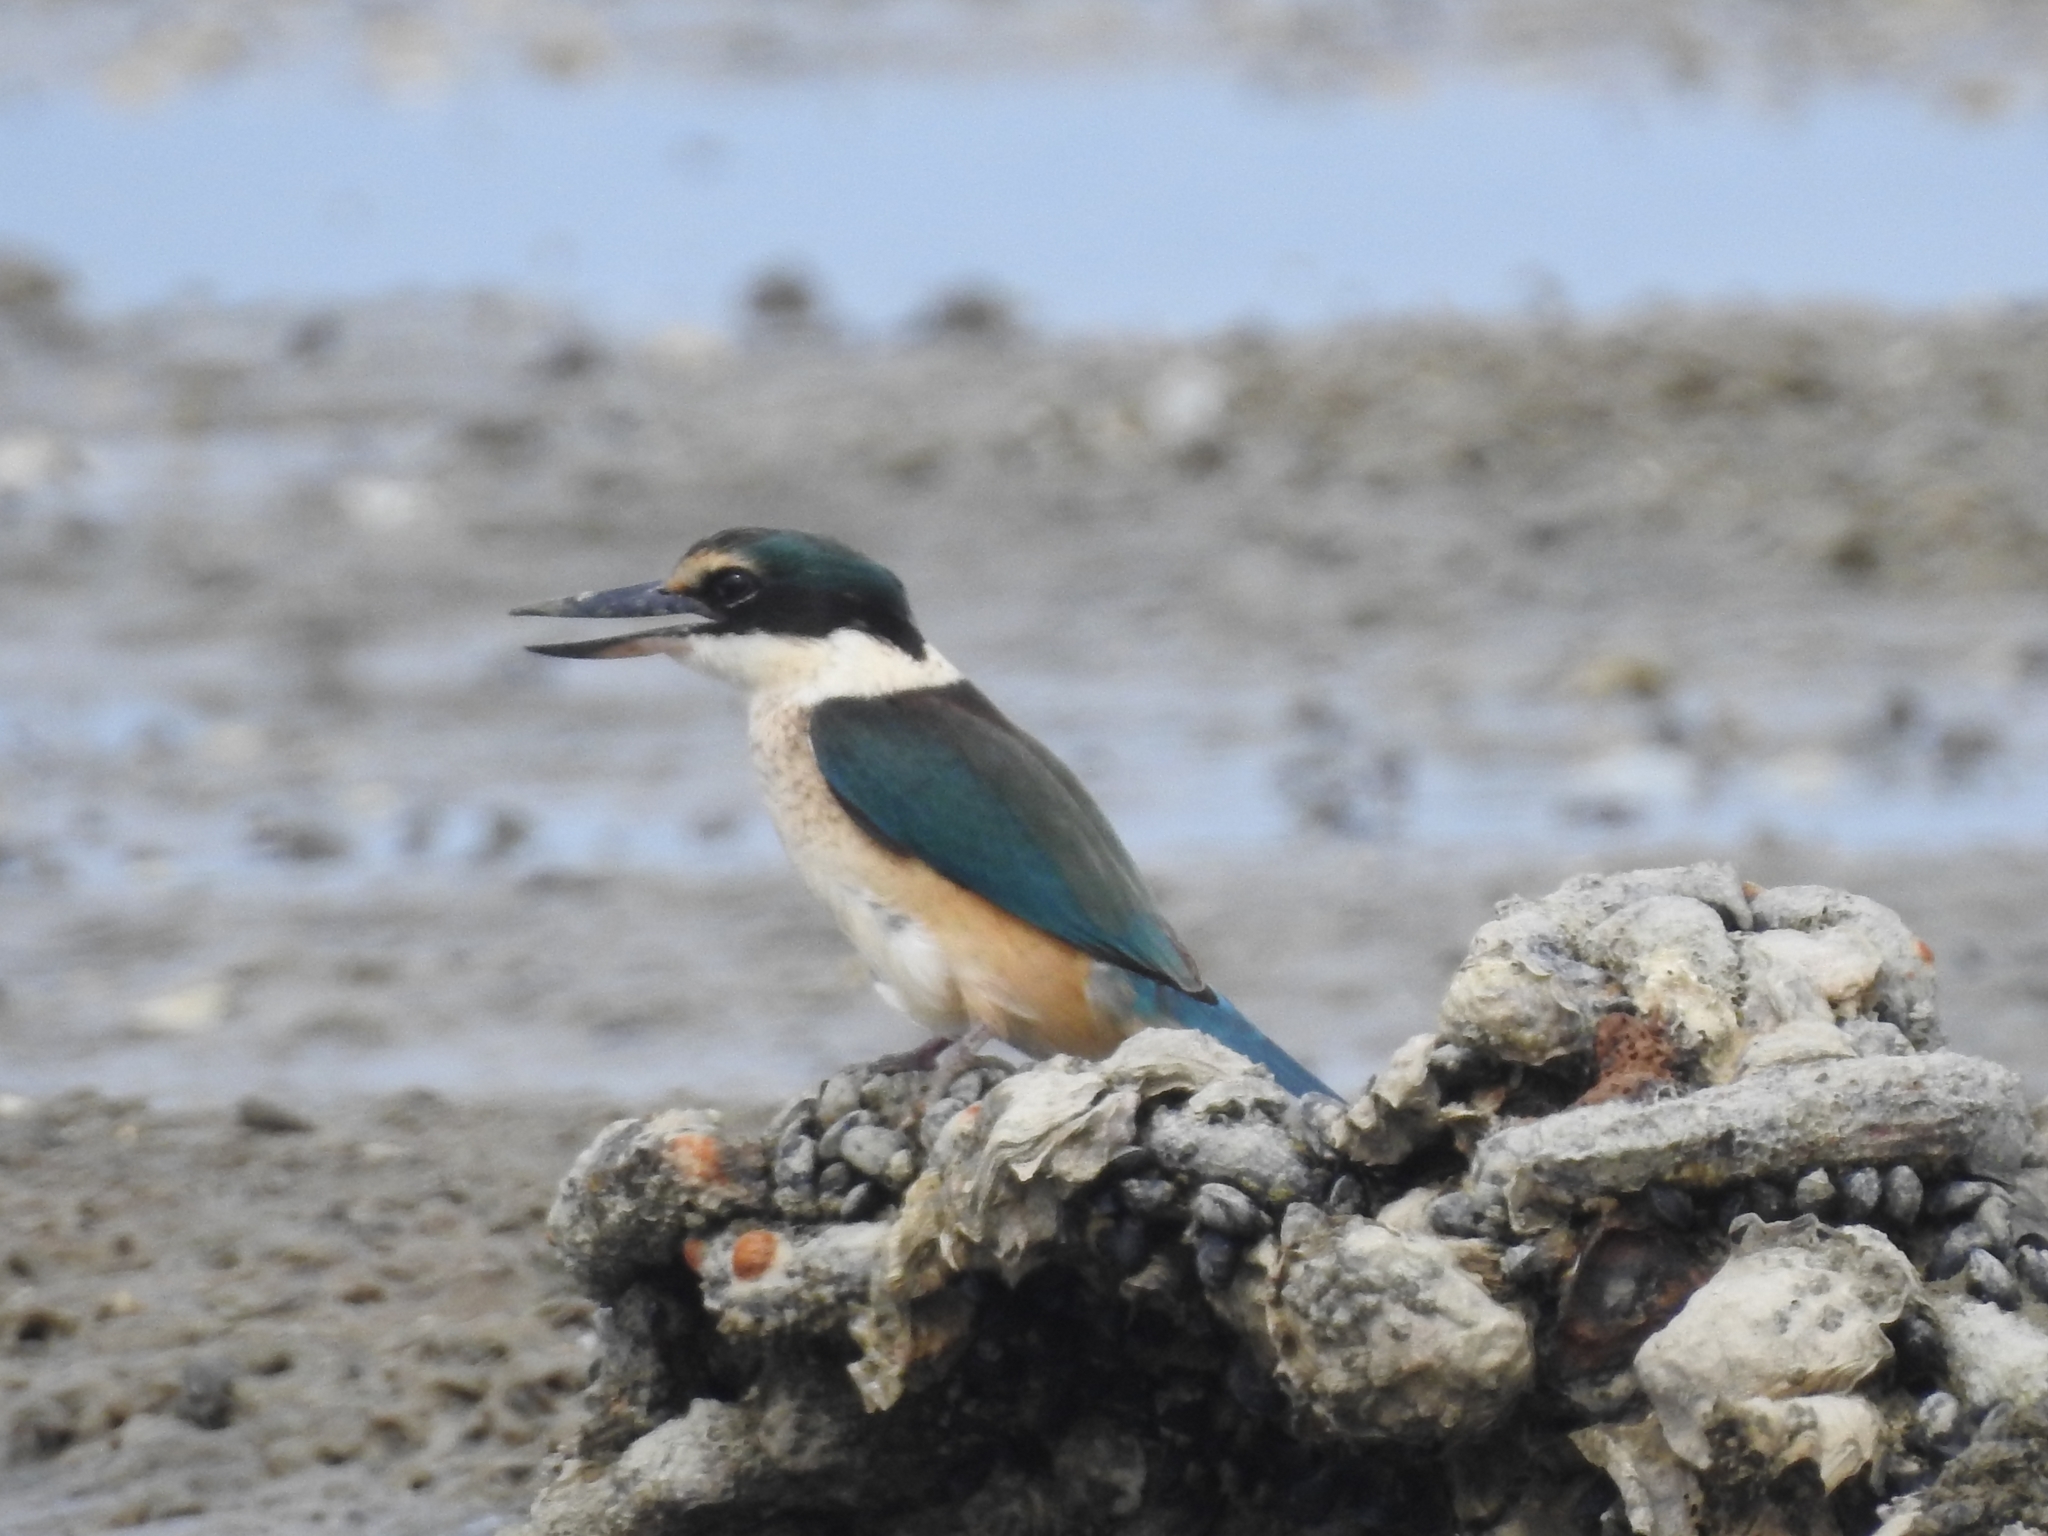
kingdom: Animalia
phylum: Chordata
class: Aves
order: Coraciiformes
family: Alcedinidae
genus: Todiramphus
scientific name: Todiramphus sanctus
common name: Sacred kingfisher
